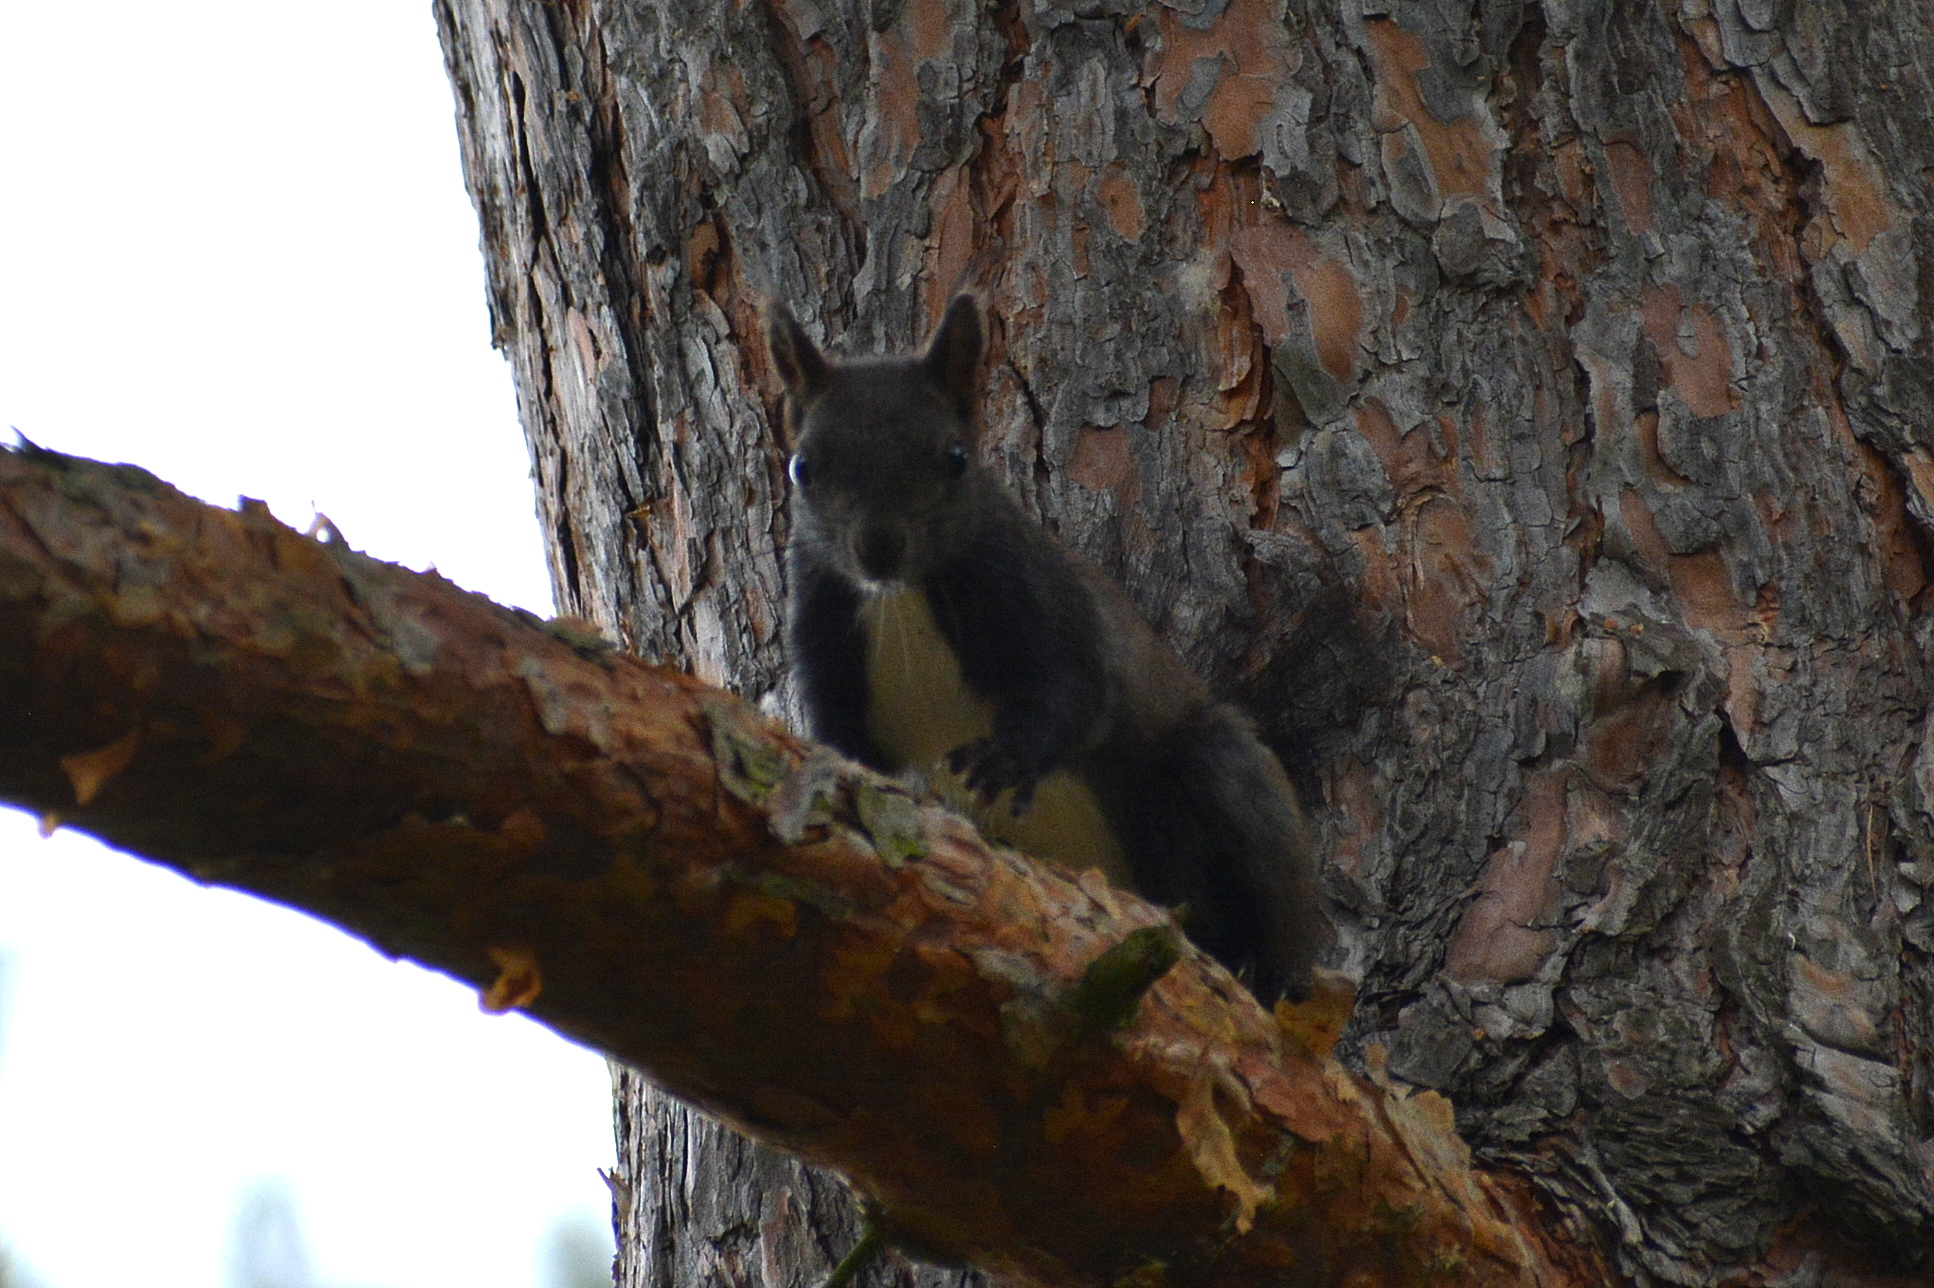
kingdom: Animalia
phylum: Chordata
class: Mammalia
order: Rodentia
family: Sciuridae
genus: Sciurus
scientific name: Sciurus vulgaris
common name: Eurasian red squirrel
